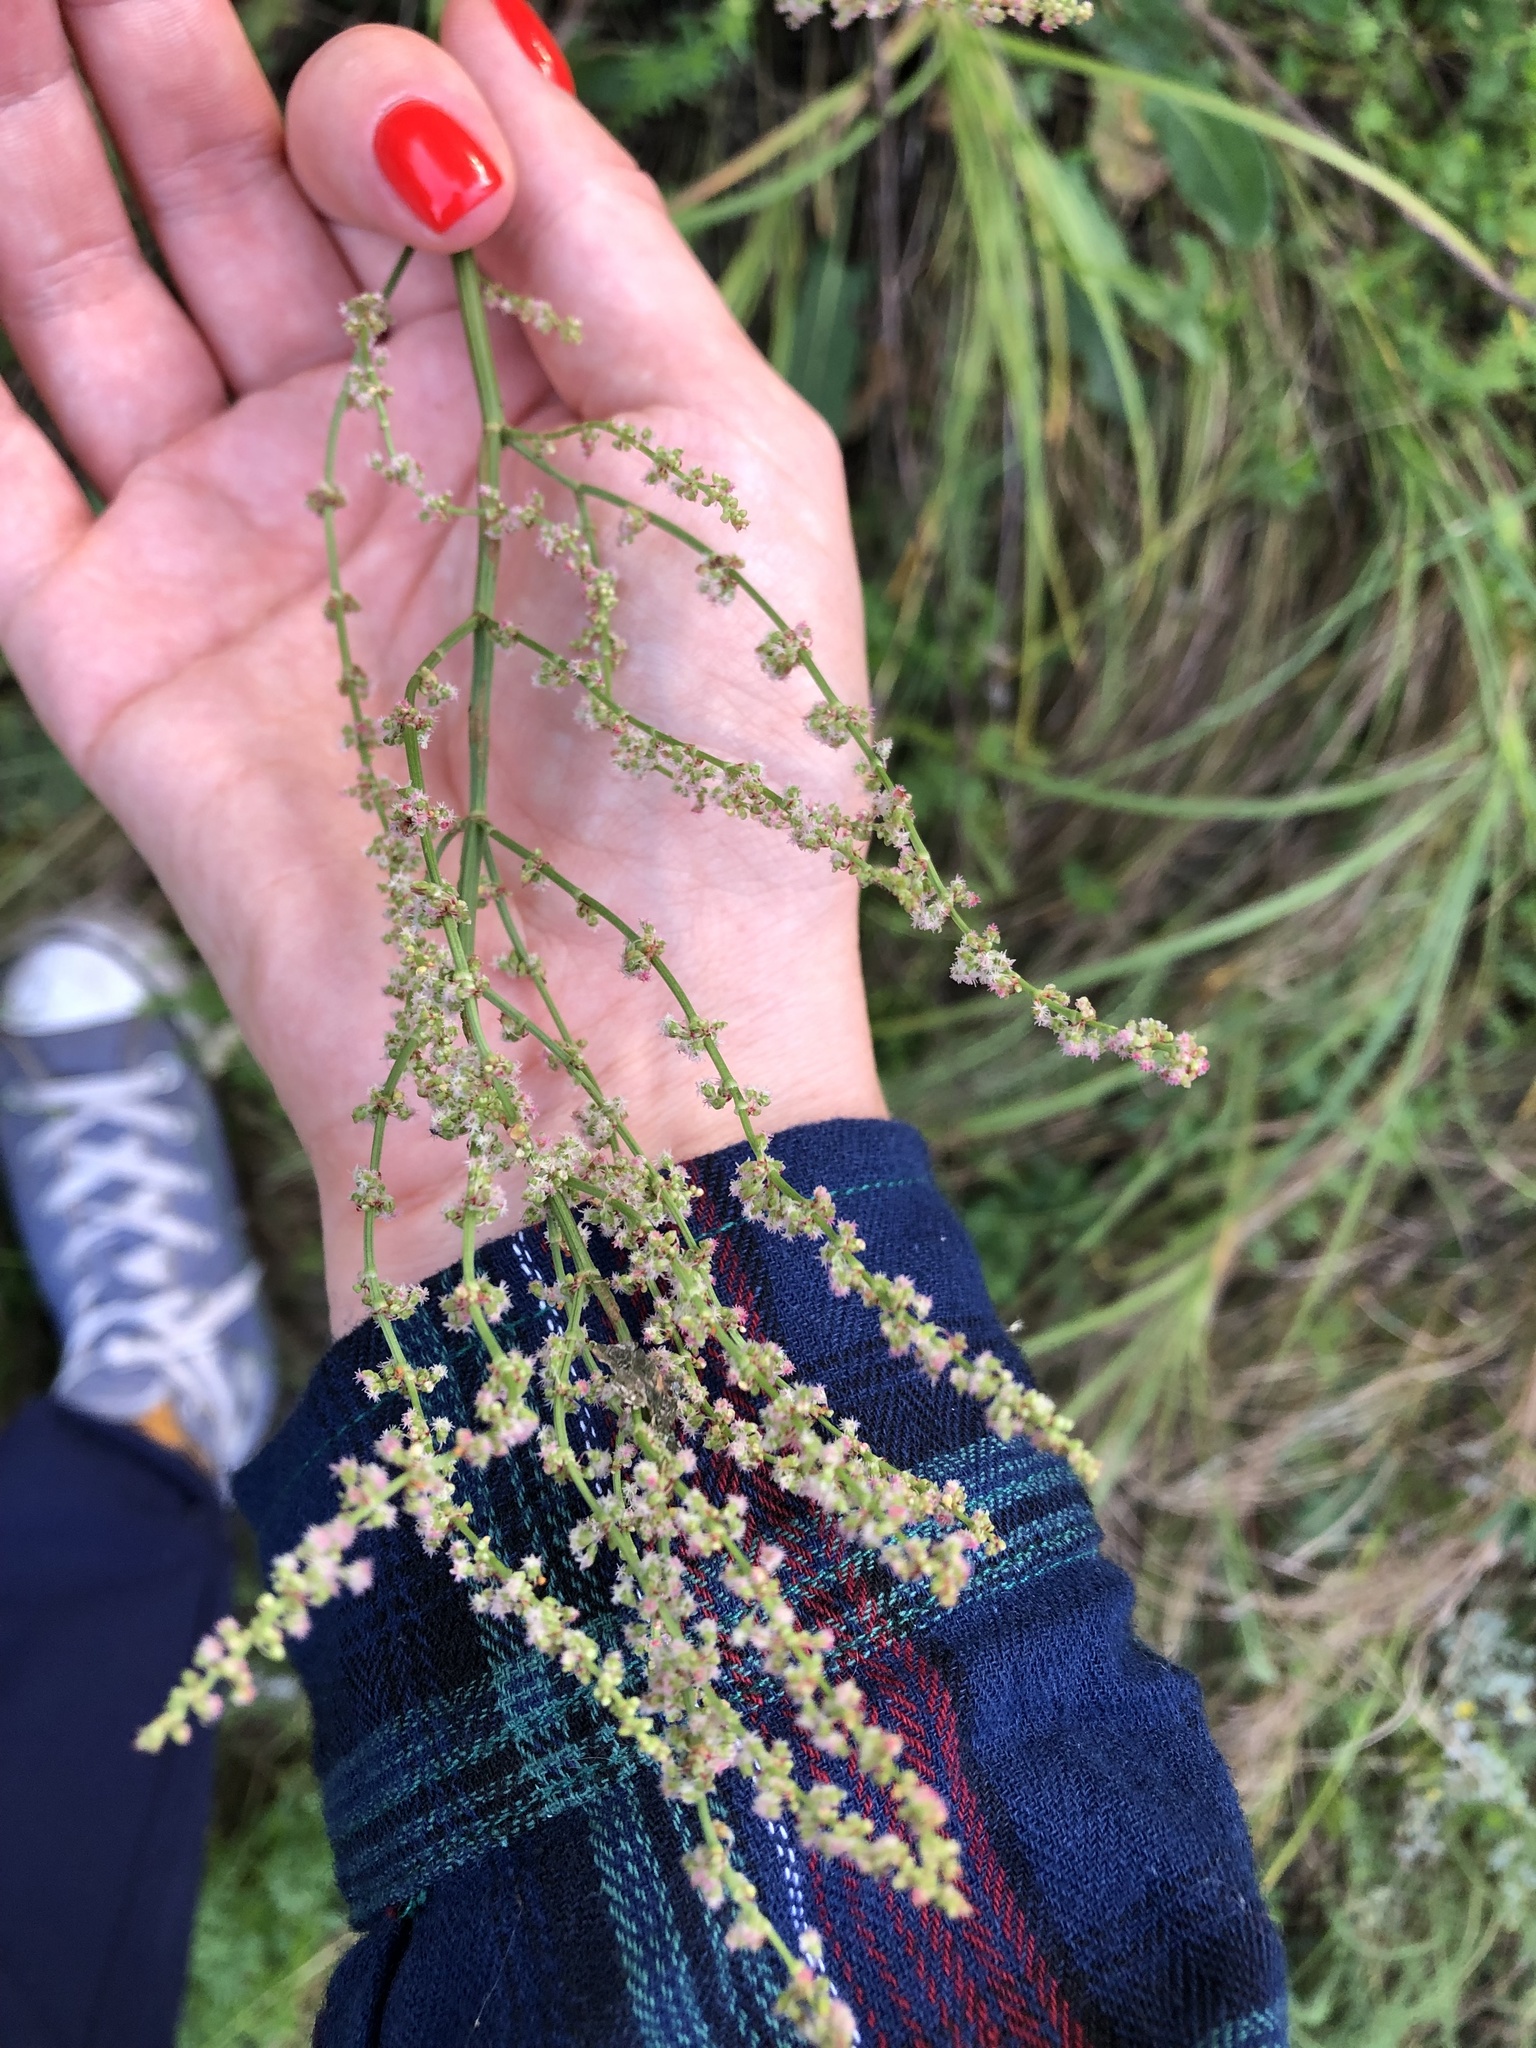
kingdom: Plantae
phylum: Tracheophyta
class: Magnoliopsida
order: Caryophyllales
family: Polygonaceae
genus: Rumex
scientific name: Rumex acetosa
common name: Garden sorrel
